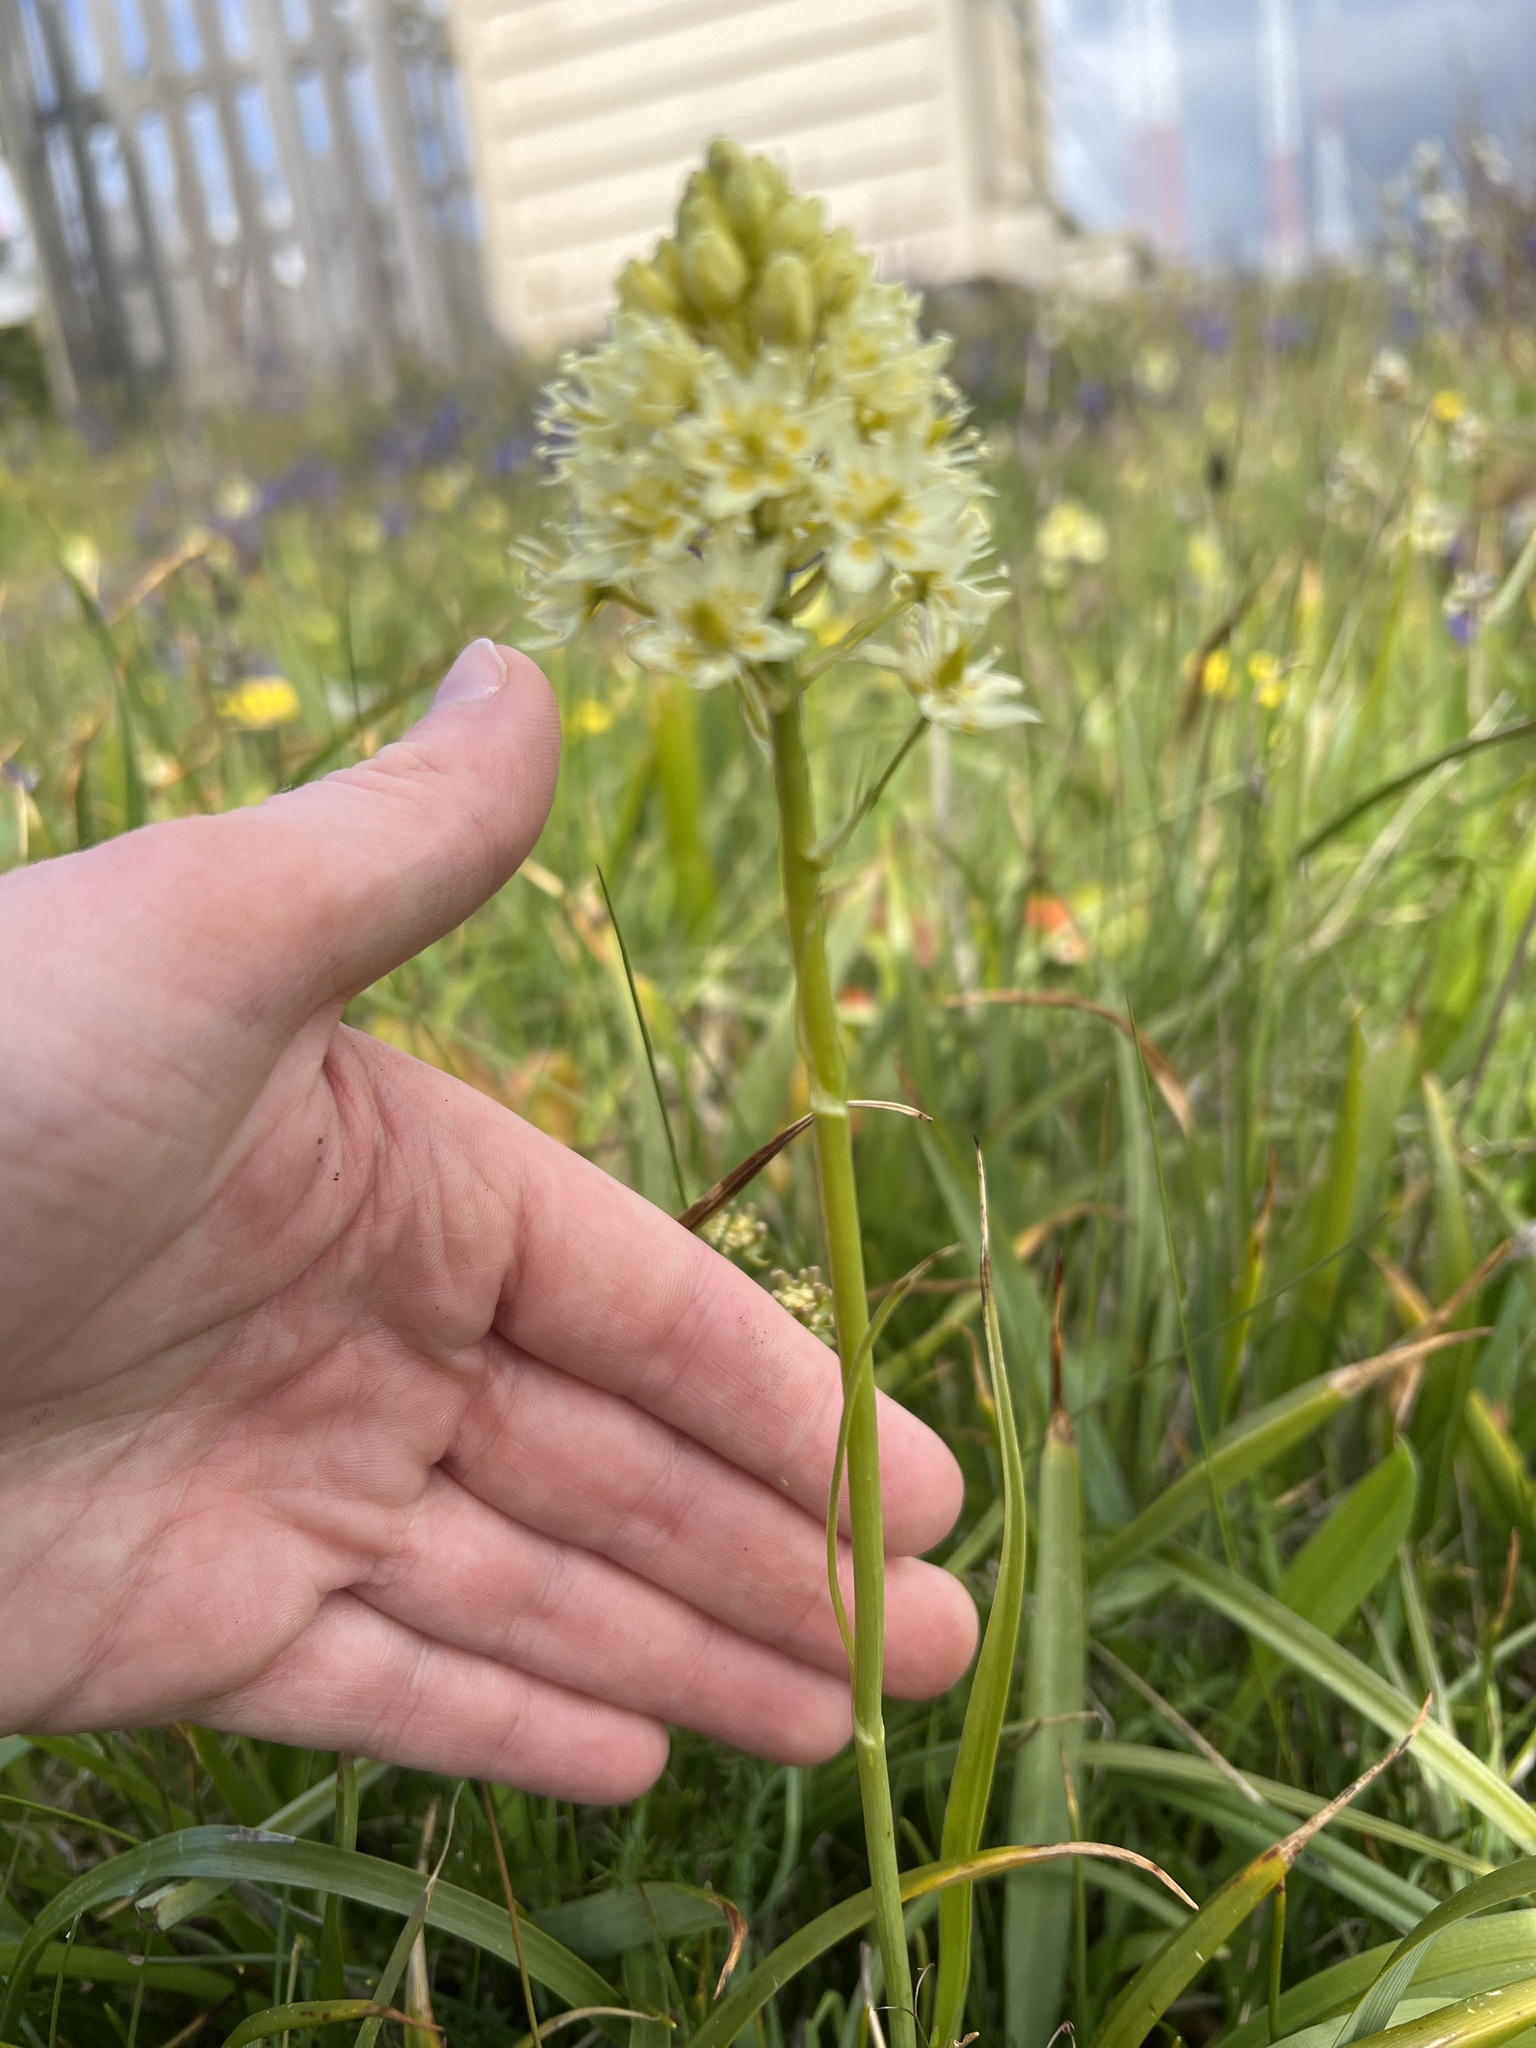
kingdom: Plantae
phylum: Tracheophyta
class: Liliopsida
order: Liliales
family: Melanthiaceae
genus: Toxicoscordion
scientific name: Toxicoscordion venenosum
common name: Meadow death camas
